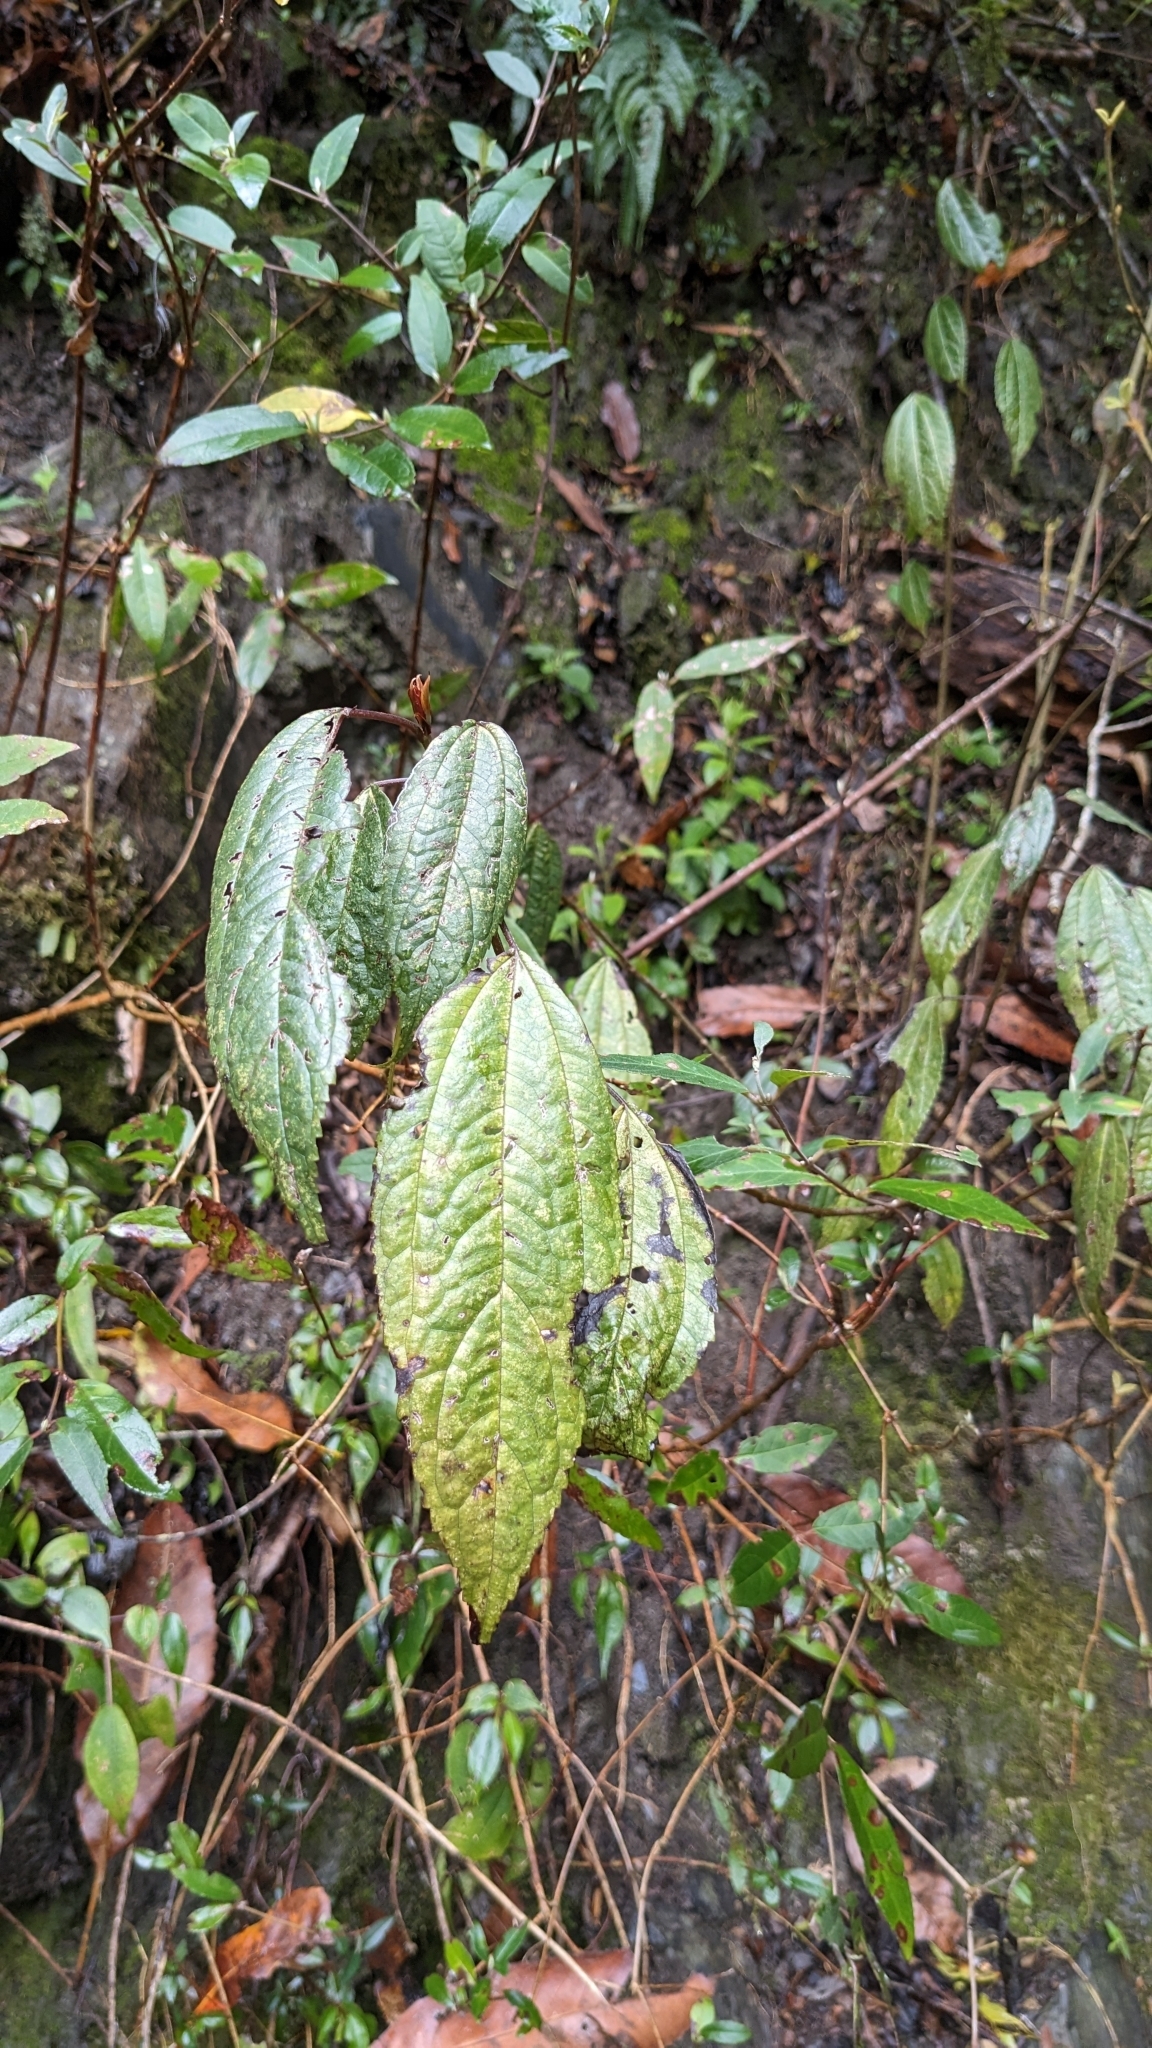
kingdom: Plantae
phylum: Tracheophyta
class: Magnoliopsida
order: Rosales
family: Urticaceae
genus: Oreocnide
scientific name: Oreocnide pedunculata
